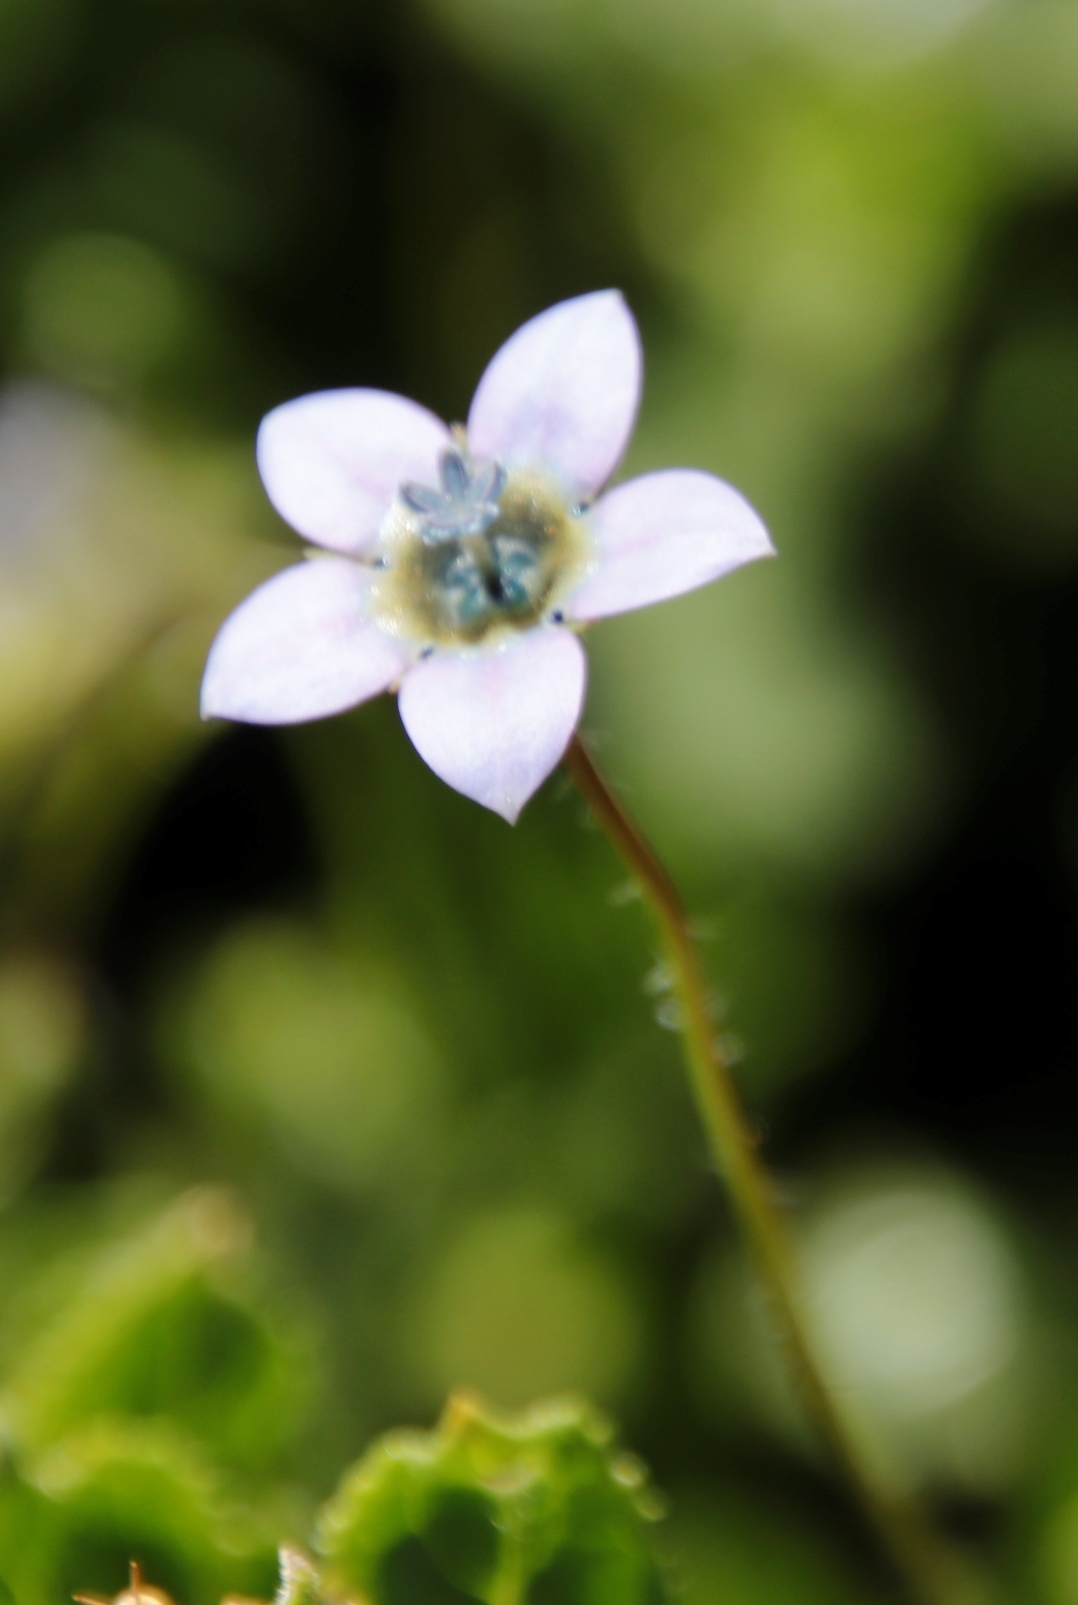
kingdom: Plantae
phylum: Tracheophyta
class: Magnoliopsida
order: Asterales
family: Campanulaceae
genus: Wahlenbergia
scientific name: Wahlenbergia capensis
